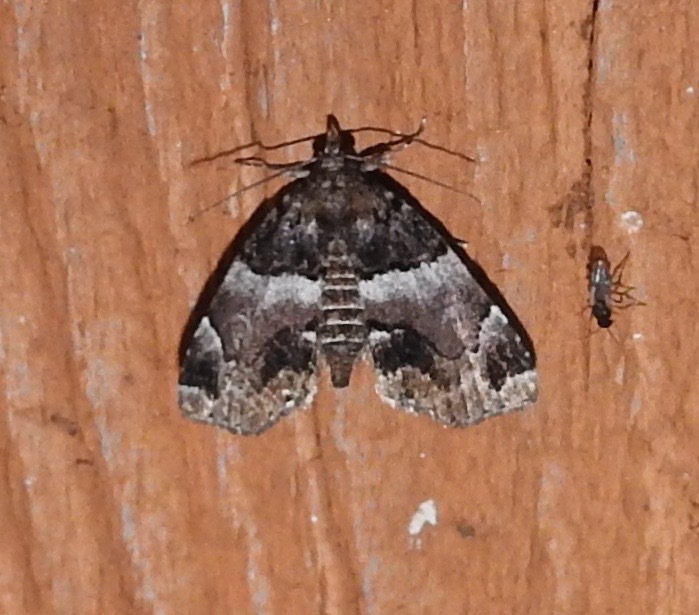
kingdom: Animalia
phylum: Arthropoda
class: Insecta
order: Lepidoptera
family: Erebidae
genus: Cutina
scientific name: Cutina distincta
